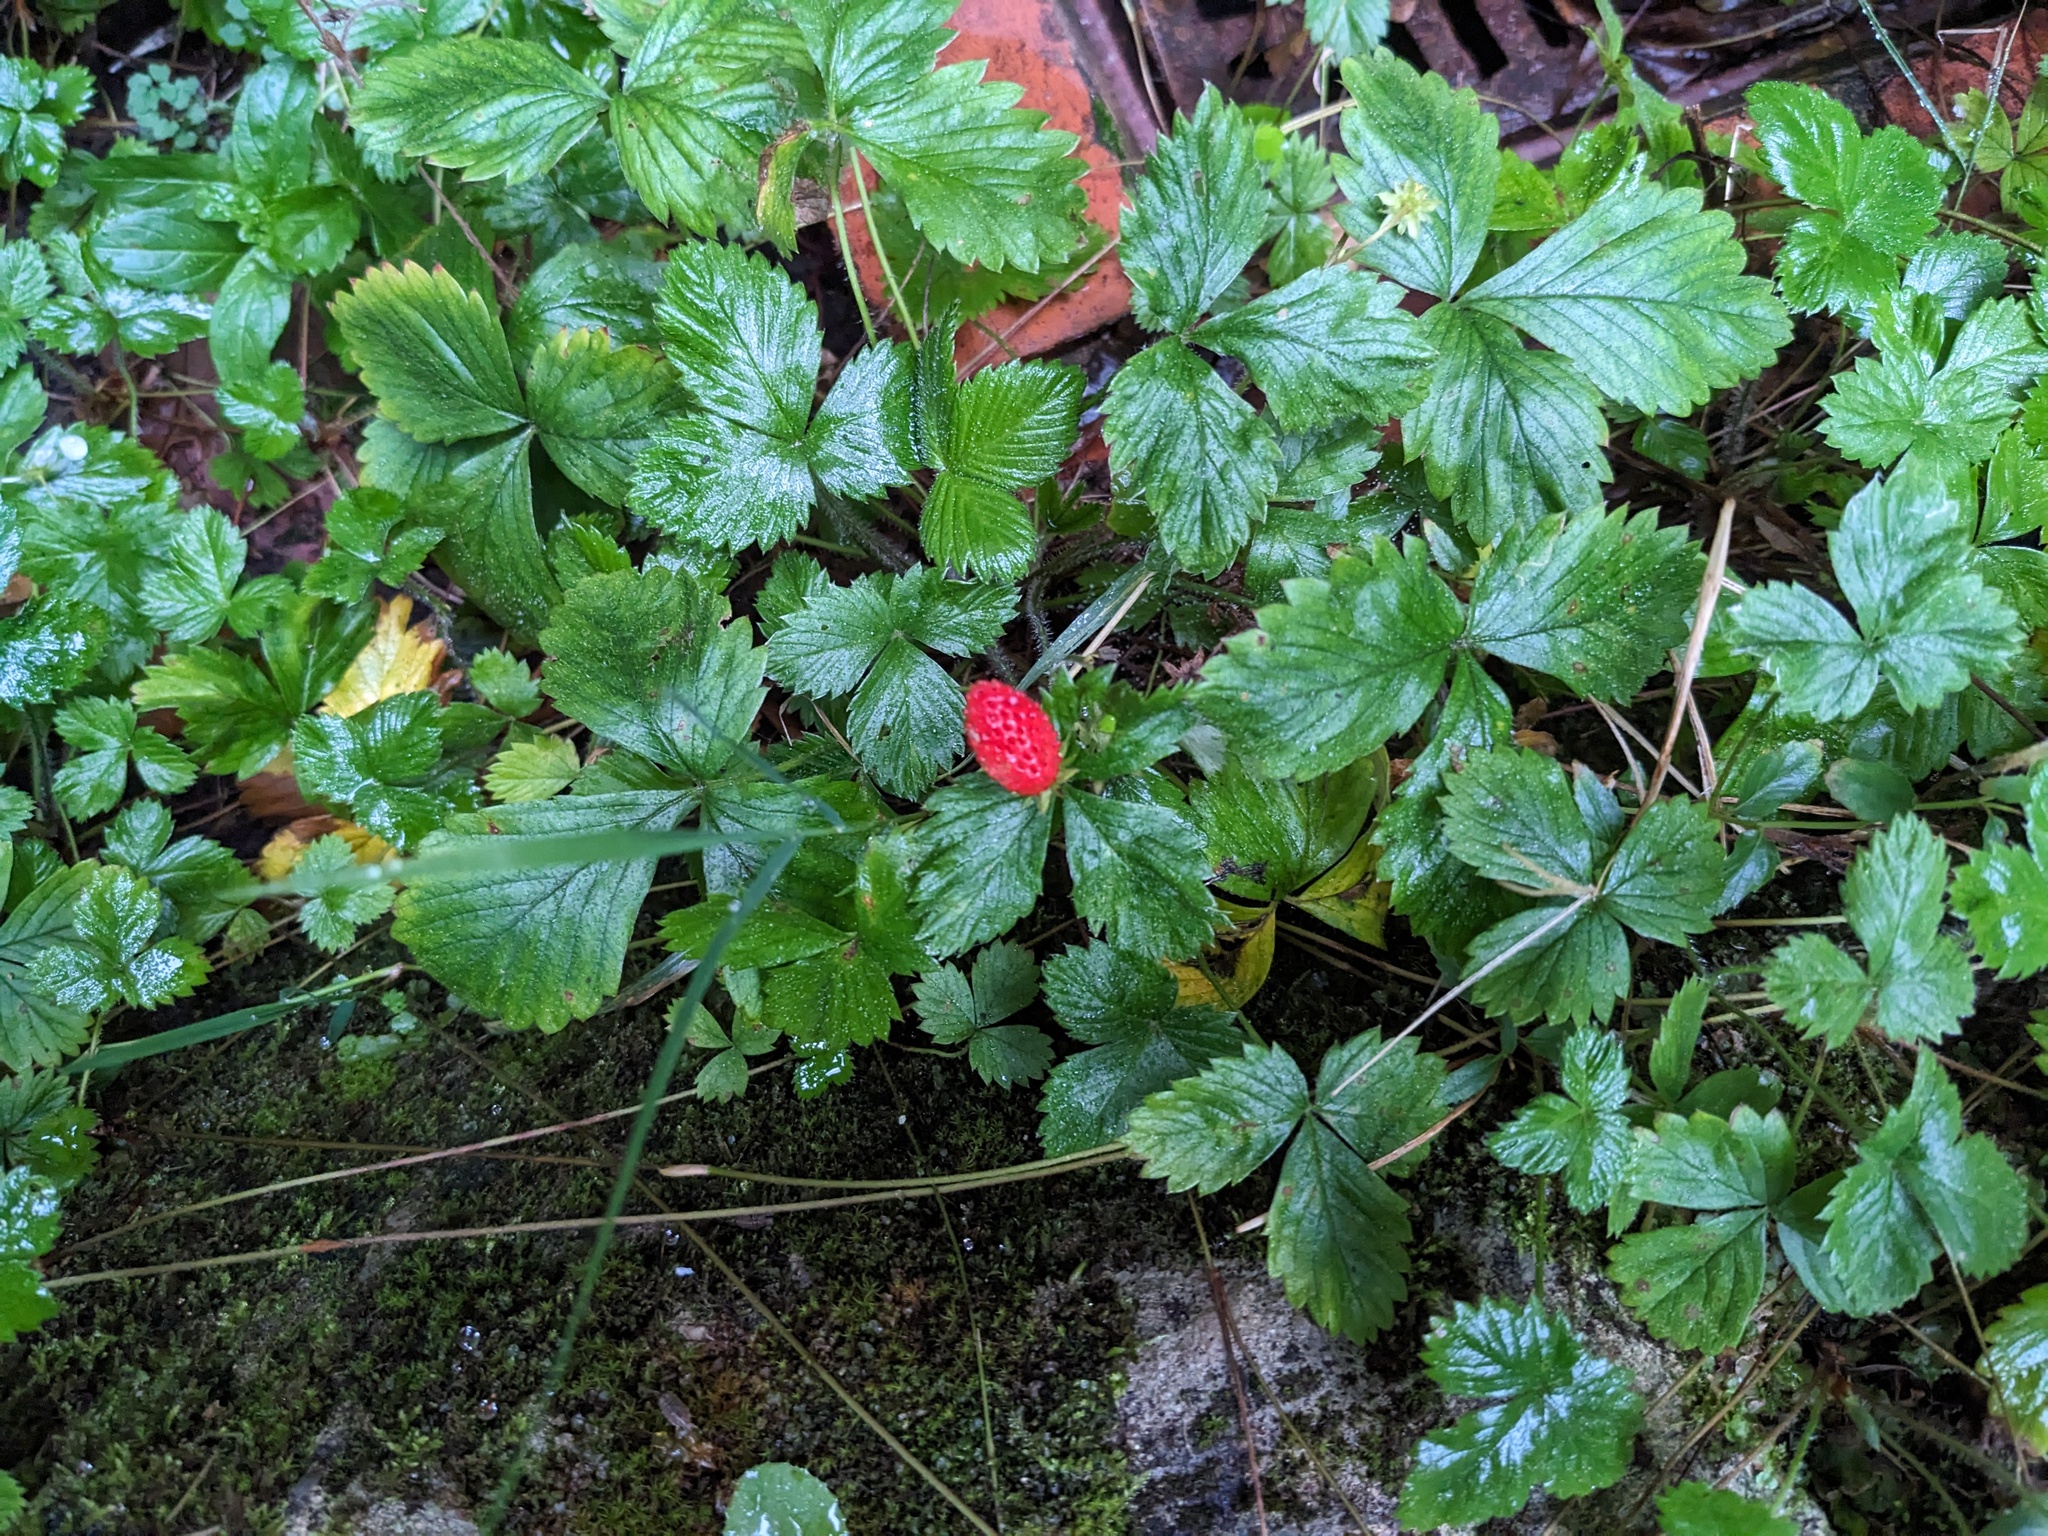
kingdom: Plantae
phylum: Tracheophyta
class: Magnoliopsida
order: Rosales
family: Rosaceae
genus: Fragaria
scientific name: Fragaria vesca
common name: Wild strawberry
